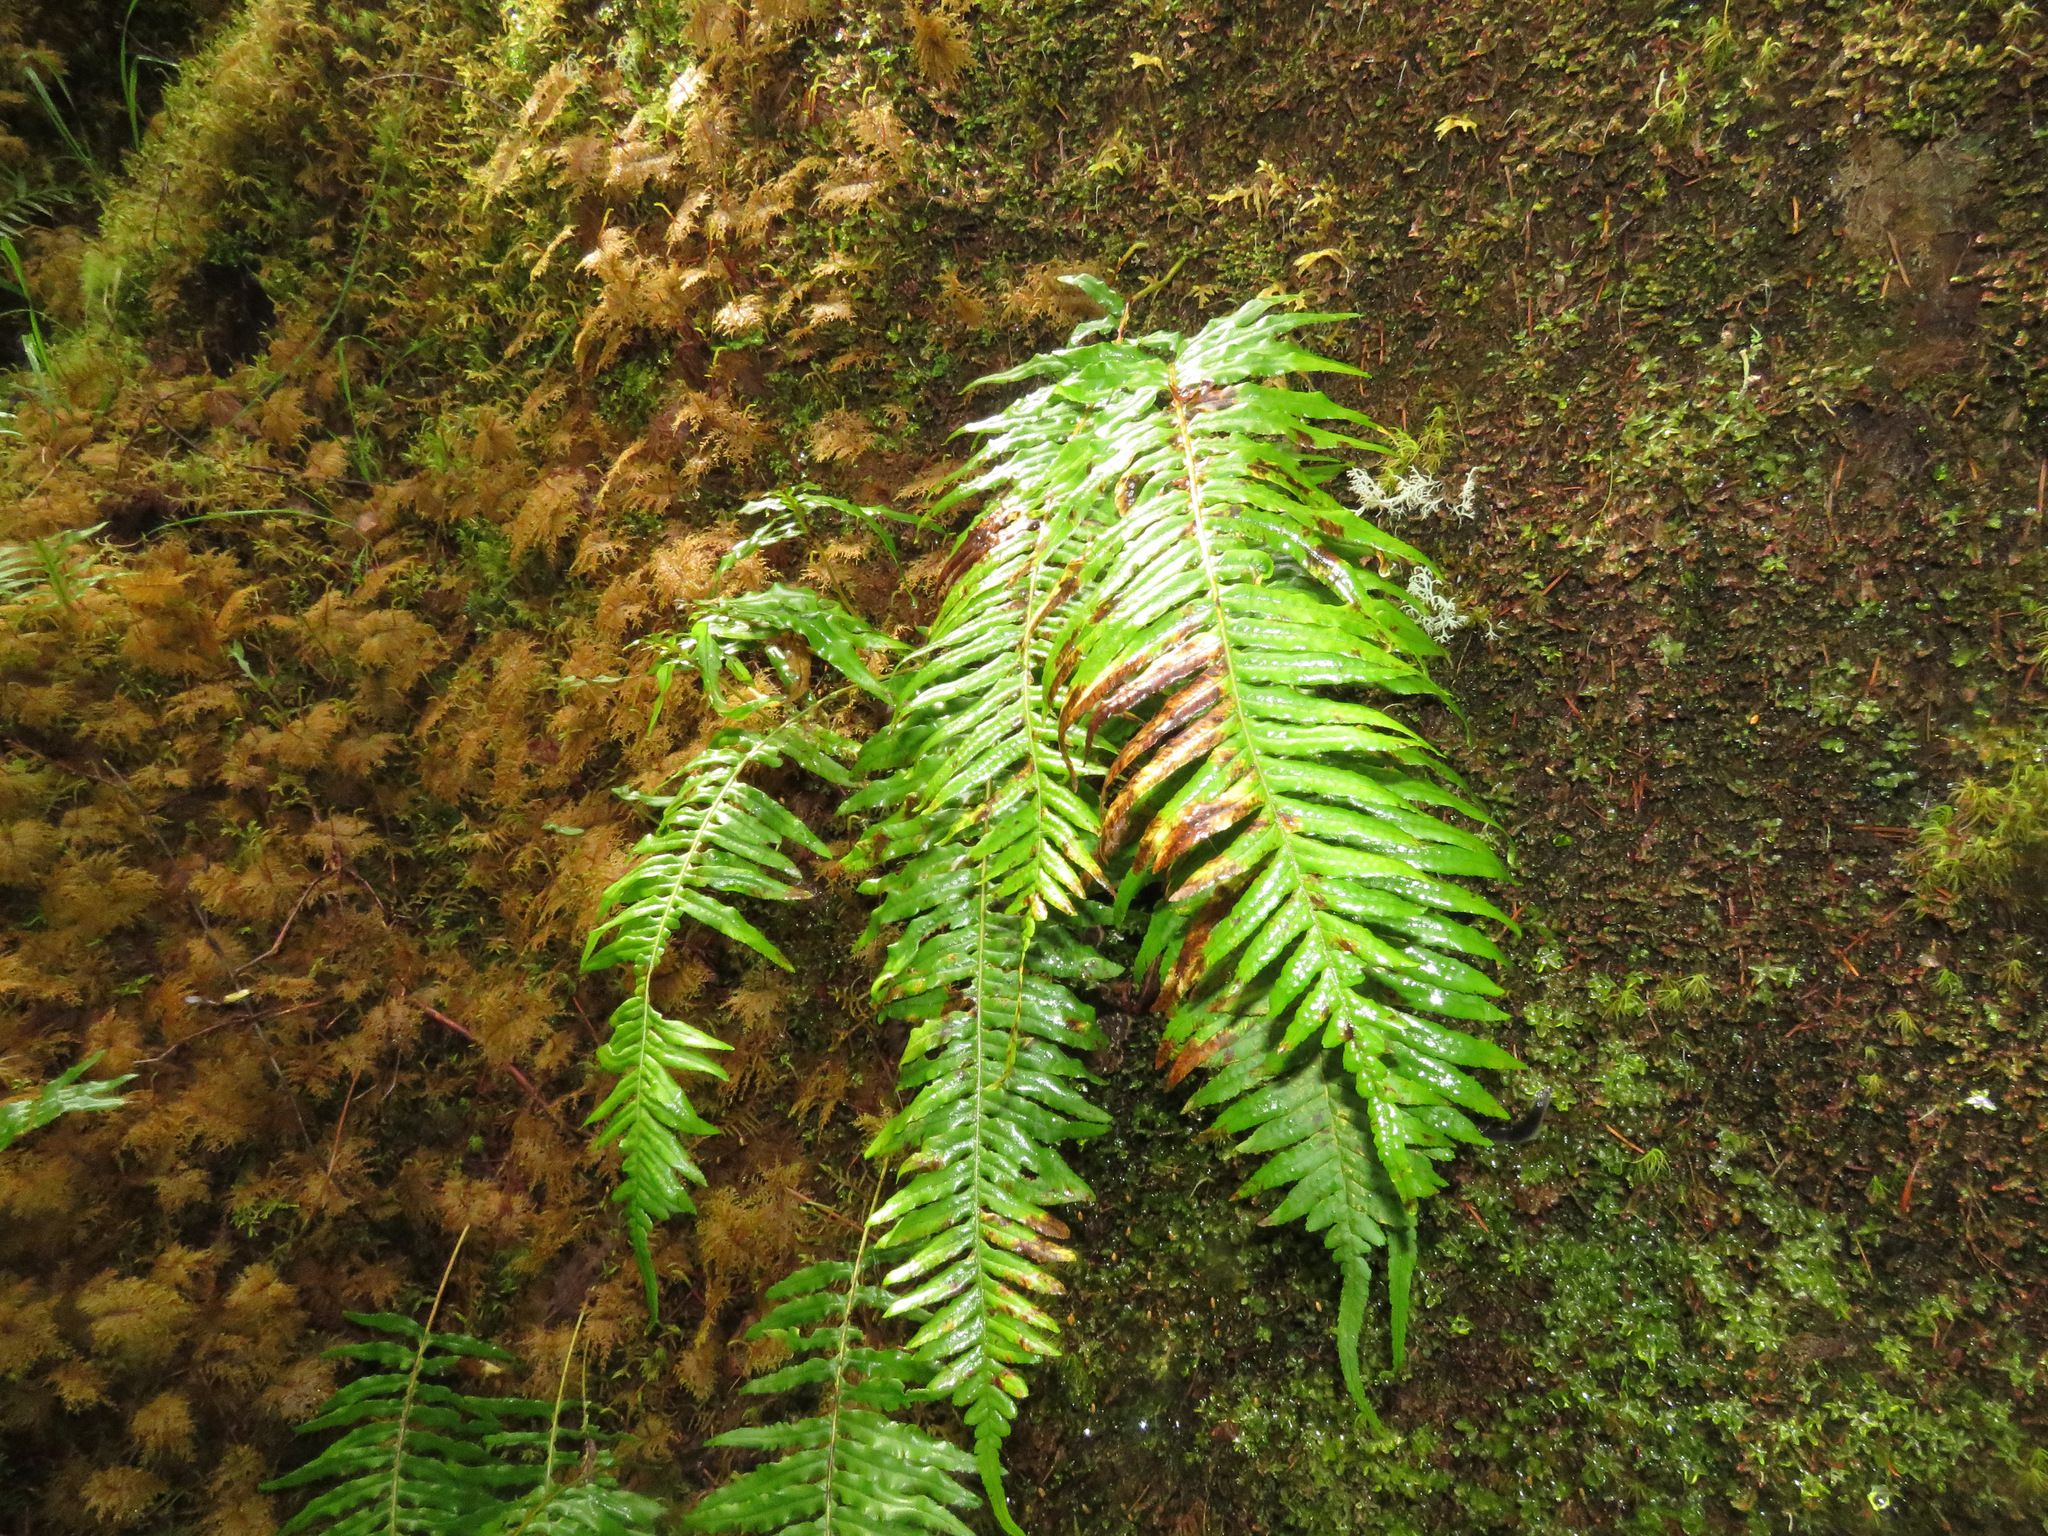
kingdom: Plantae
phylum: Tracheophyta
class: Polypodiopsida
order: Polypodiales
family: Polypodiaceae
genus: Polypodium
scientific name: Polypodium glycyrrhiza
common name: Licorice fern
